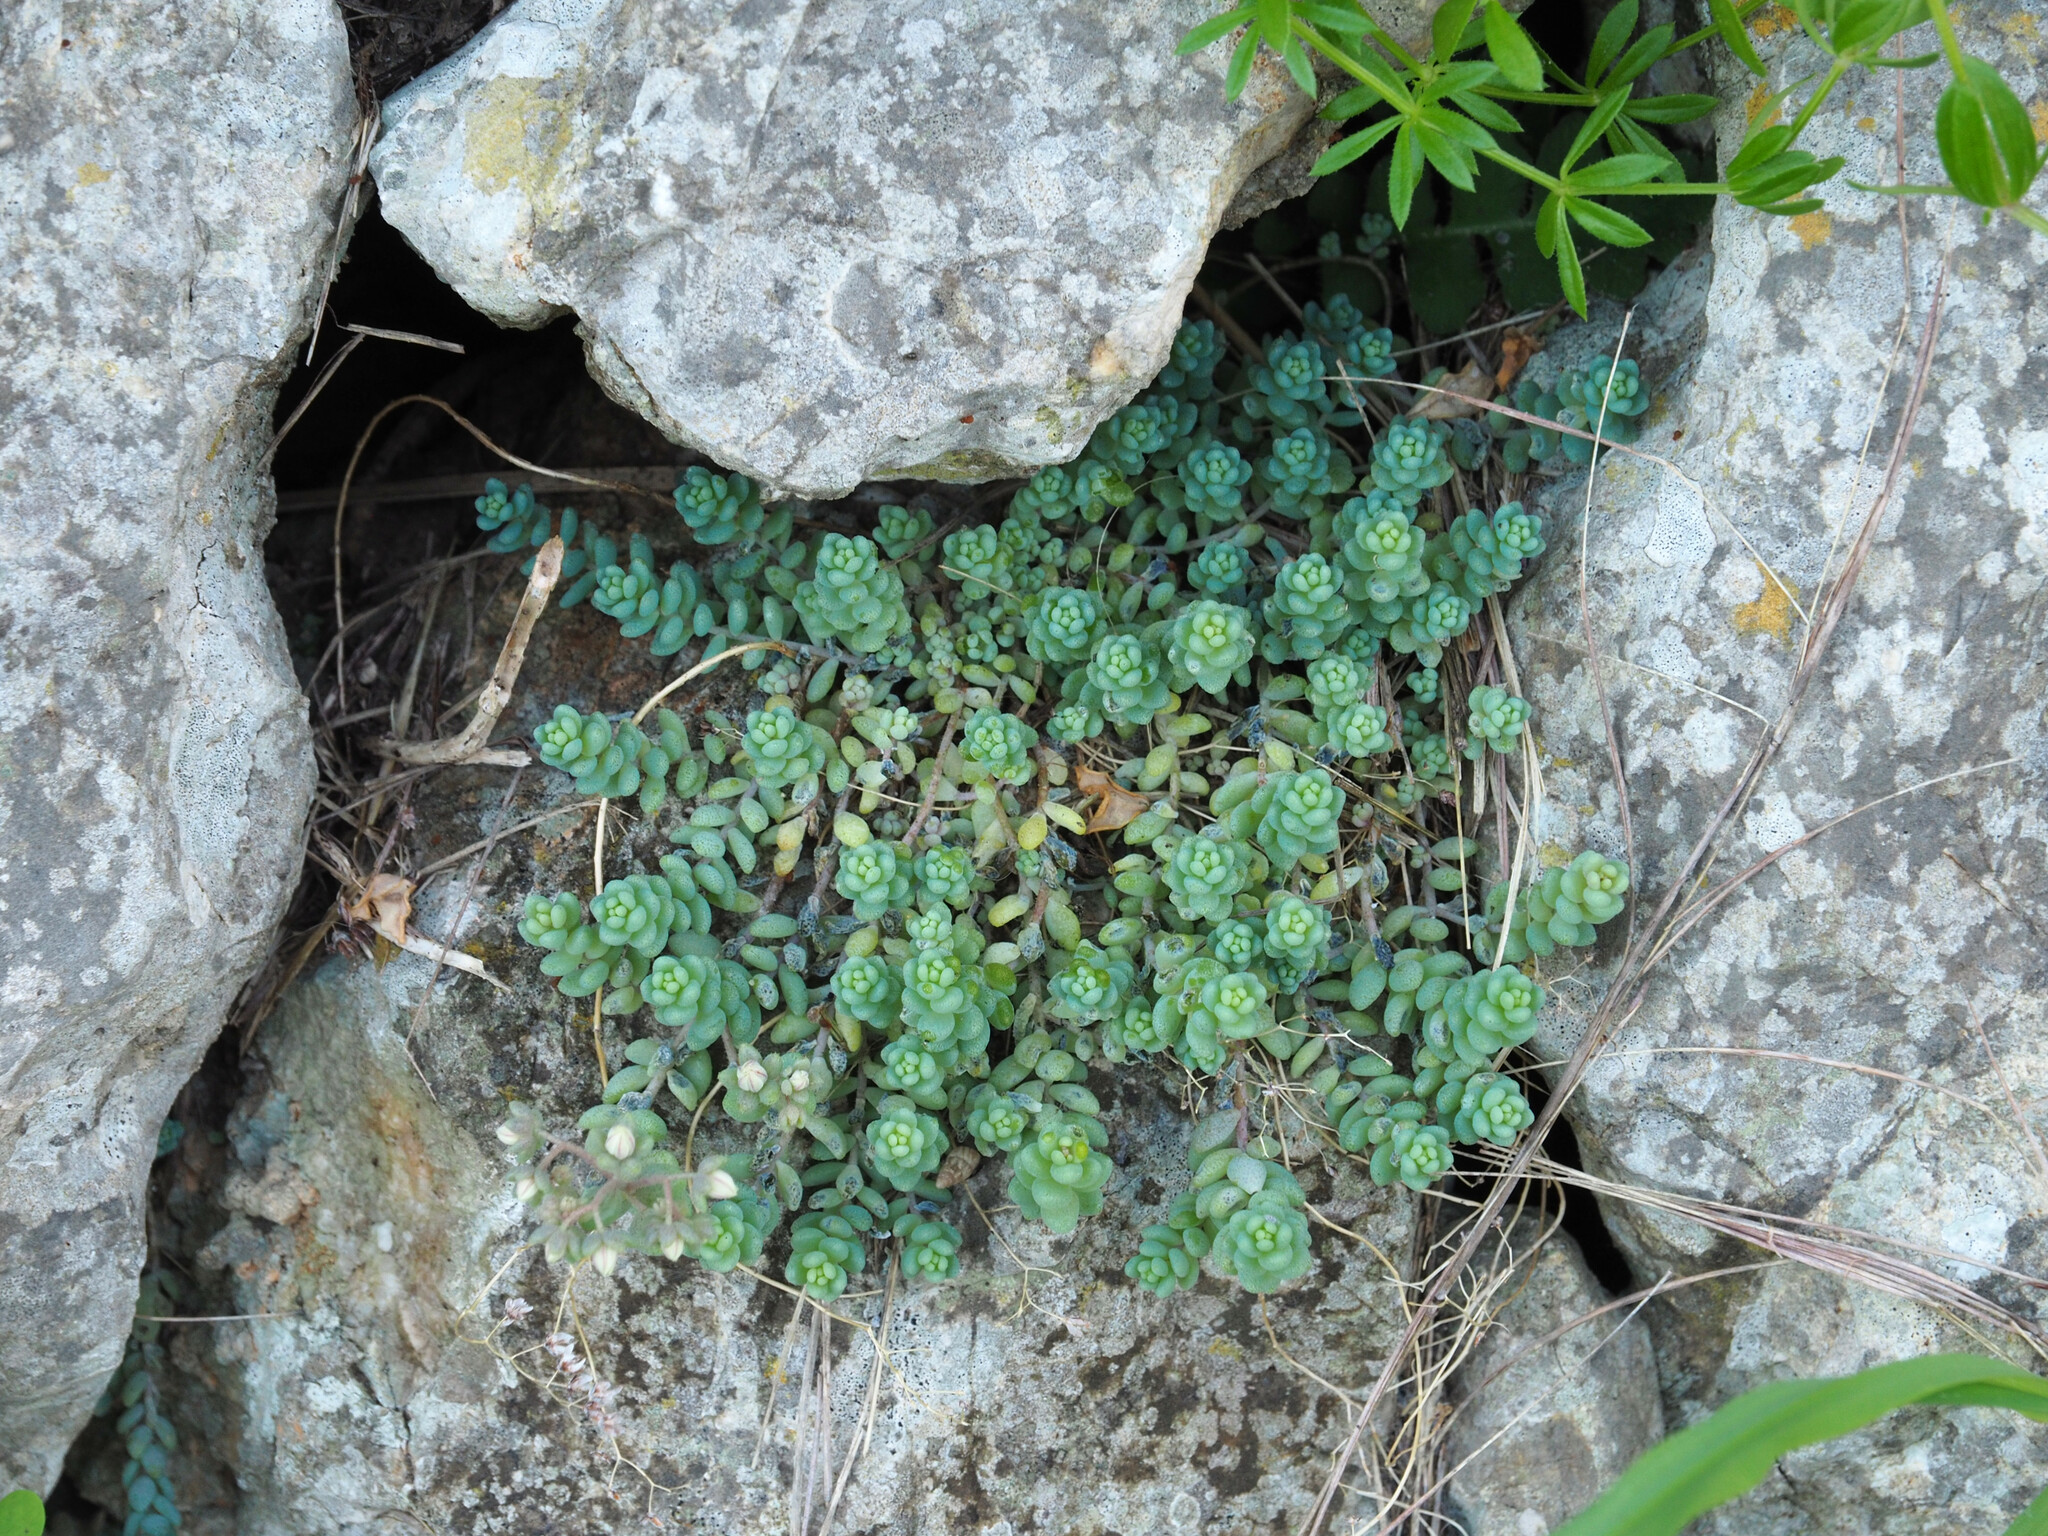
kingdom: Plantae
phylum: Tracheophyta
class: Magnoliopsida
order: Saxifragales
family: Crassulaceae
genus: Sedum
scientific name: Sedum dasyphyllum
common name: Thick-leaf stonecrop
